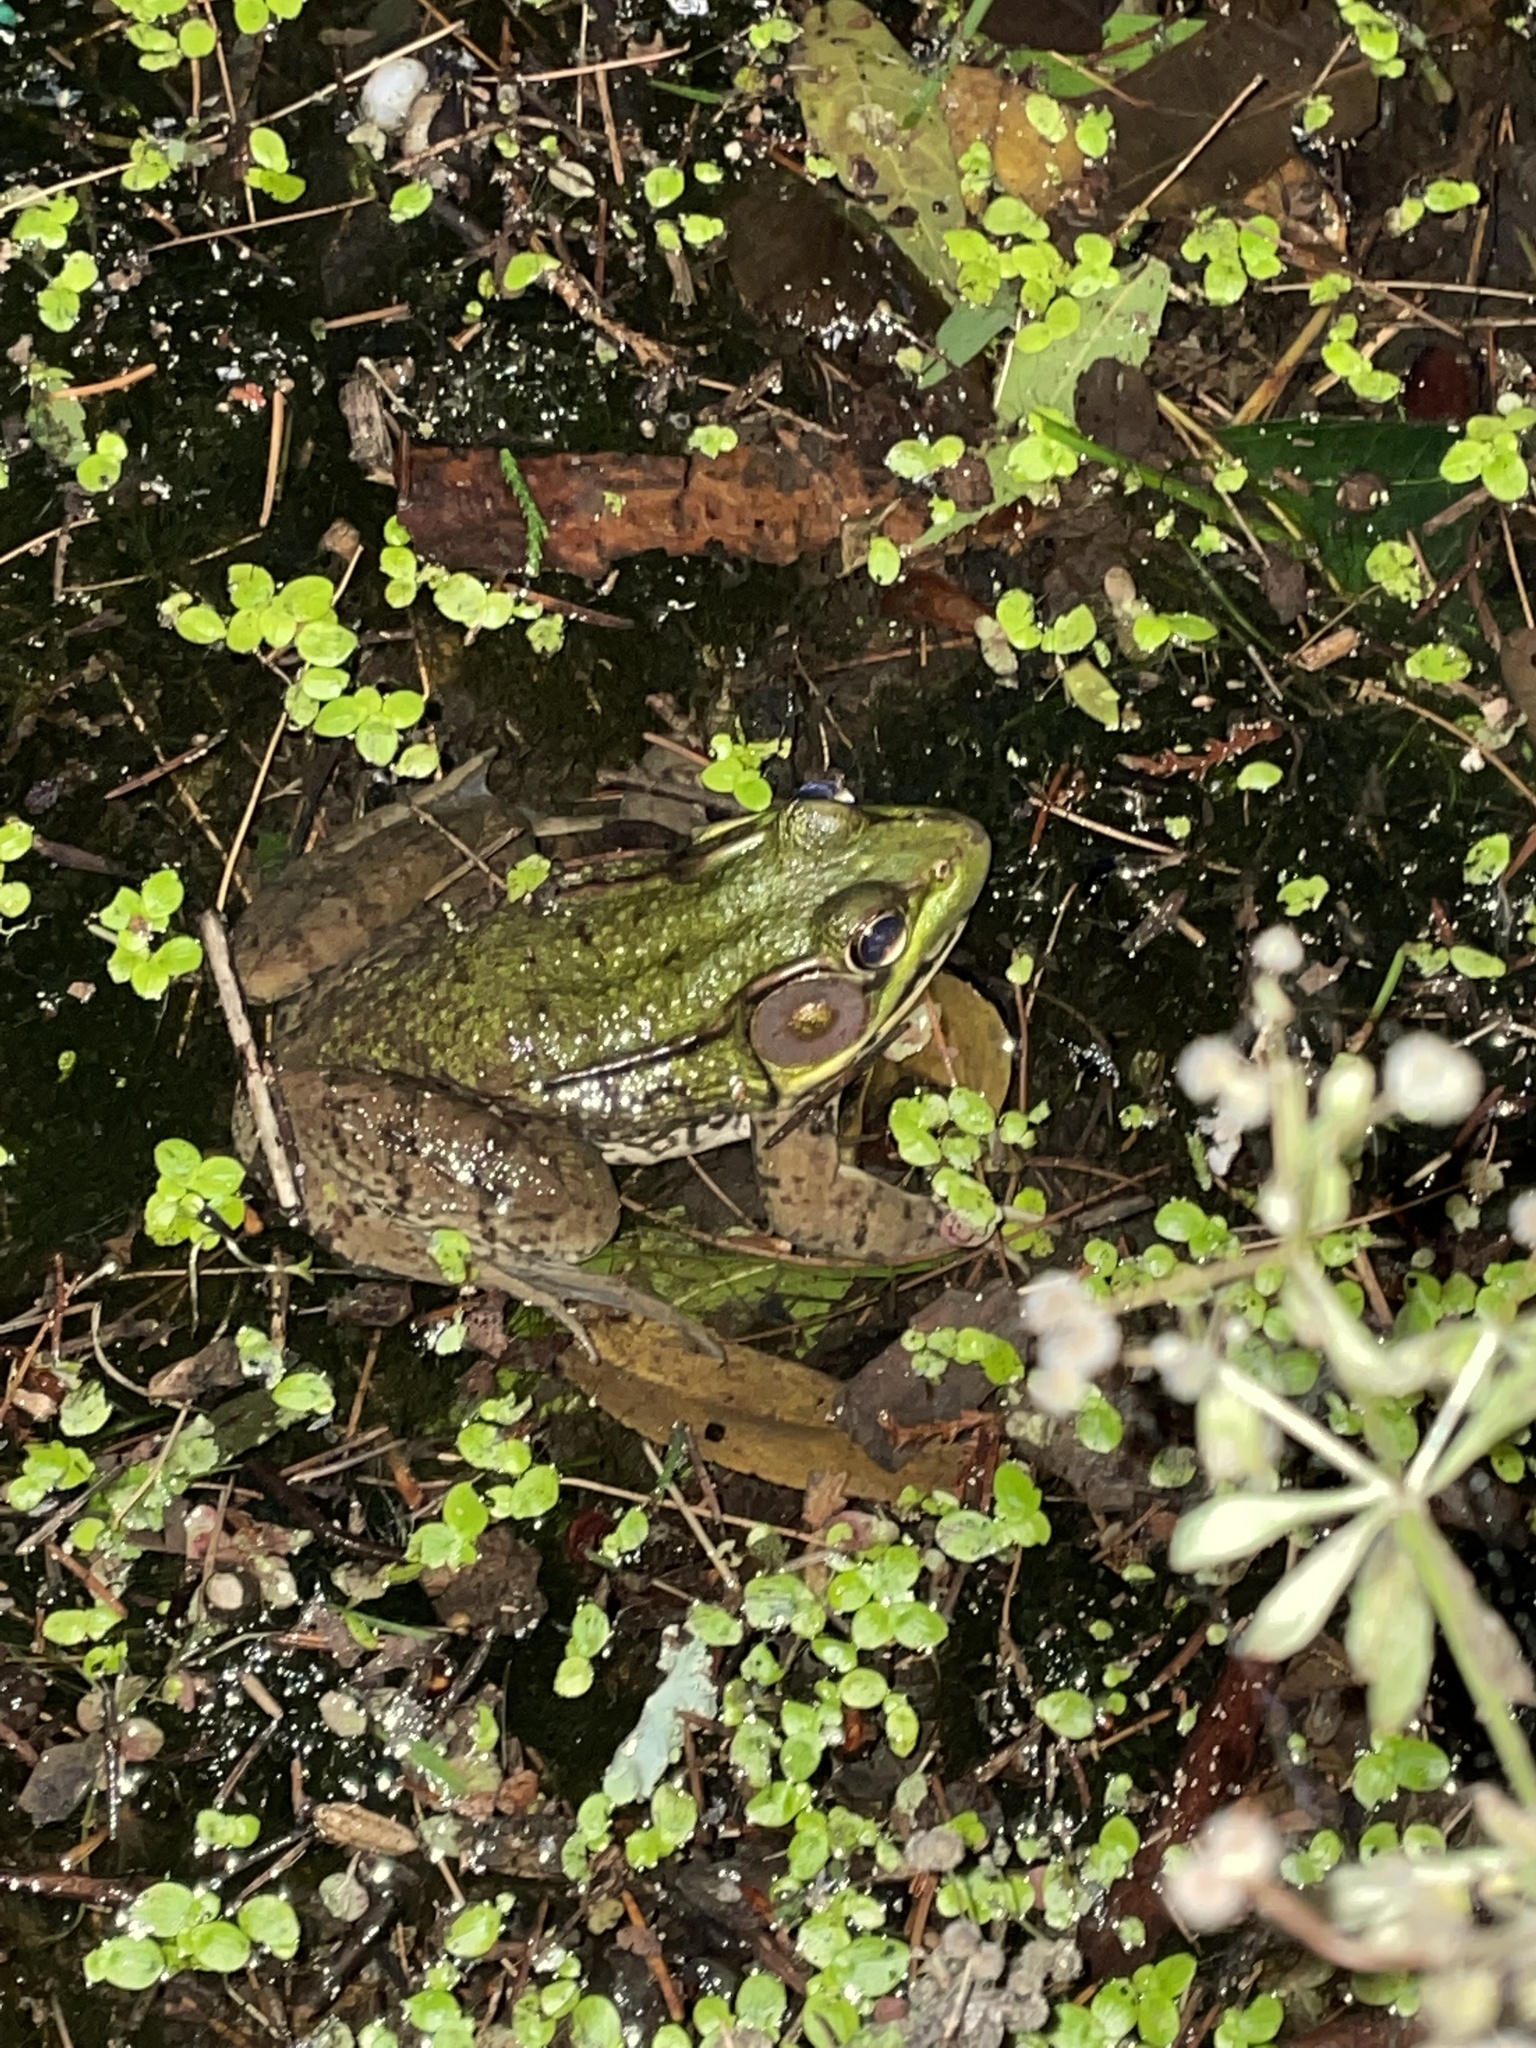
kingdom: Animalia
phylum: Chordata
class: Amphibia
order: Anura
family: Ranidae
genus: Lithobates
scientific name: Lithobates clamitans
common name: Green frog
